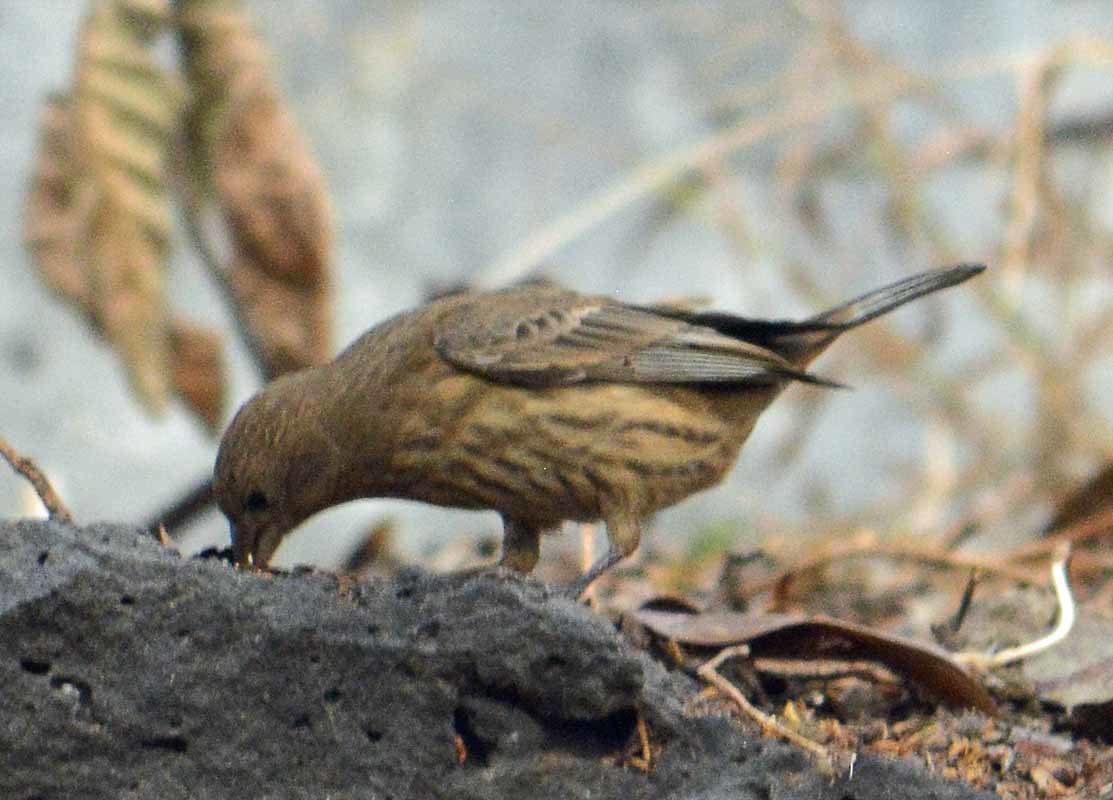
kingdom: Animalia
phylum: Chordata
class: Aves
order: Passeriformes
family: Fringillidae
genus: Haemorhous
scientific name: Haemorhous mexicanus
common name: House finch
